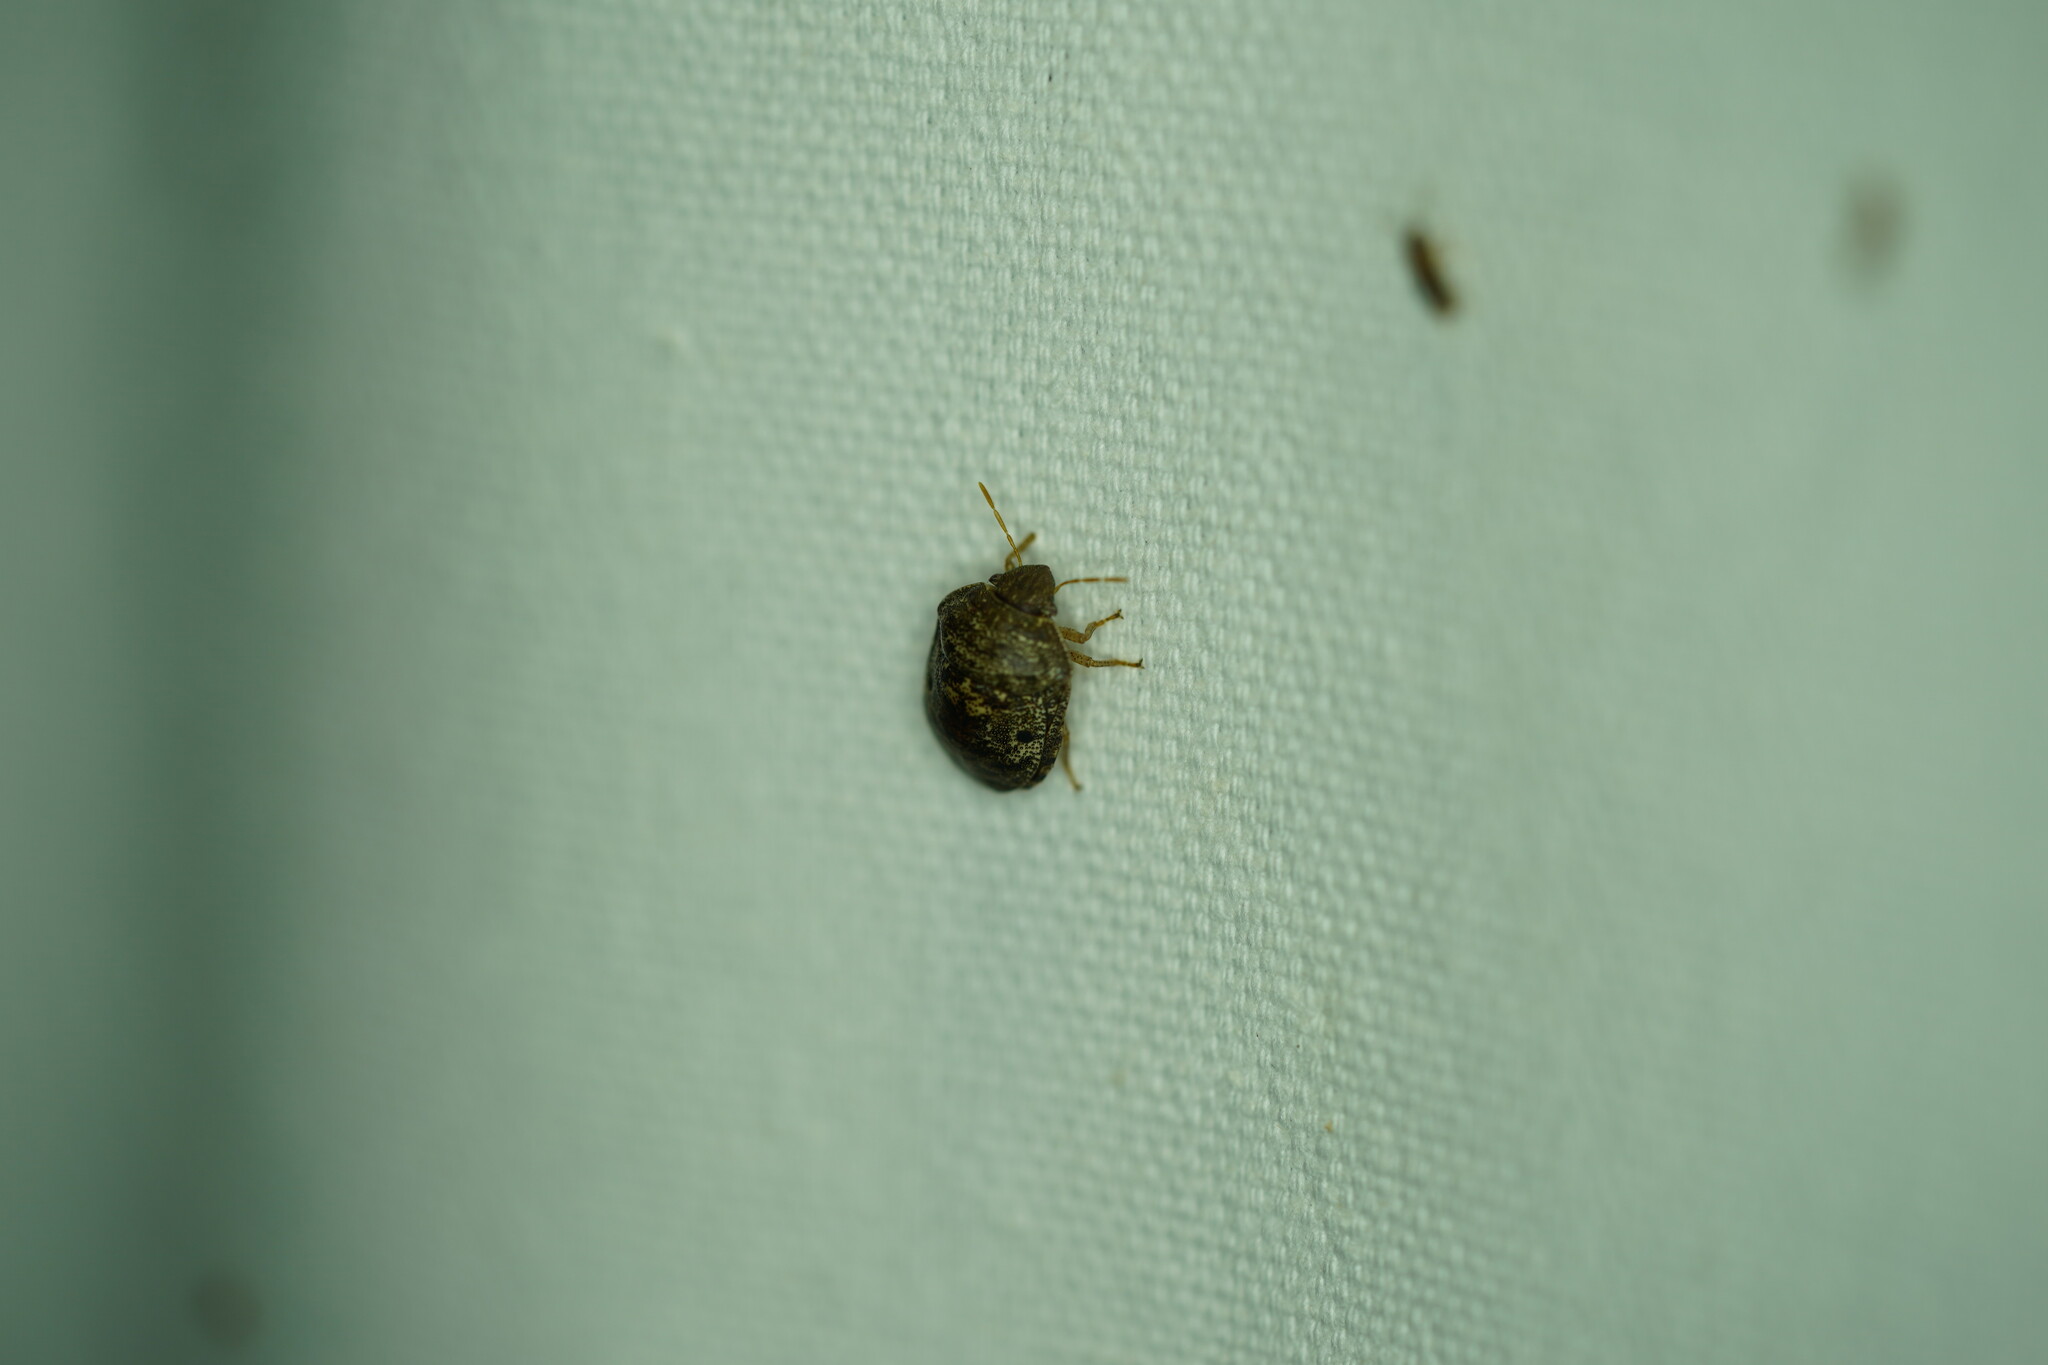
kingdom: Animalia
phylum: Arthropoda
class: Insecta
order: Hemiptera
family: Scutelleridae
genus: Diolcus
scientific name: Diolcus chrysorrhoeus
